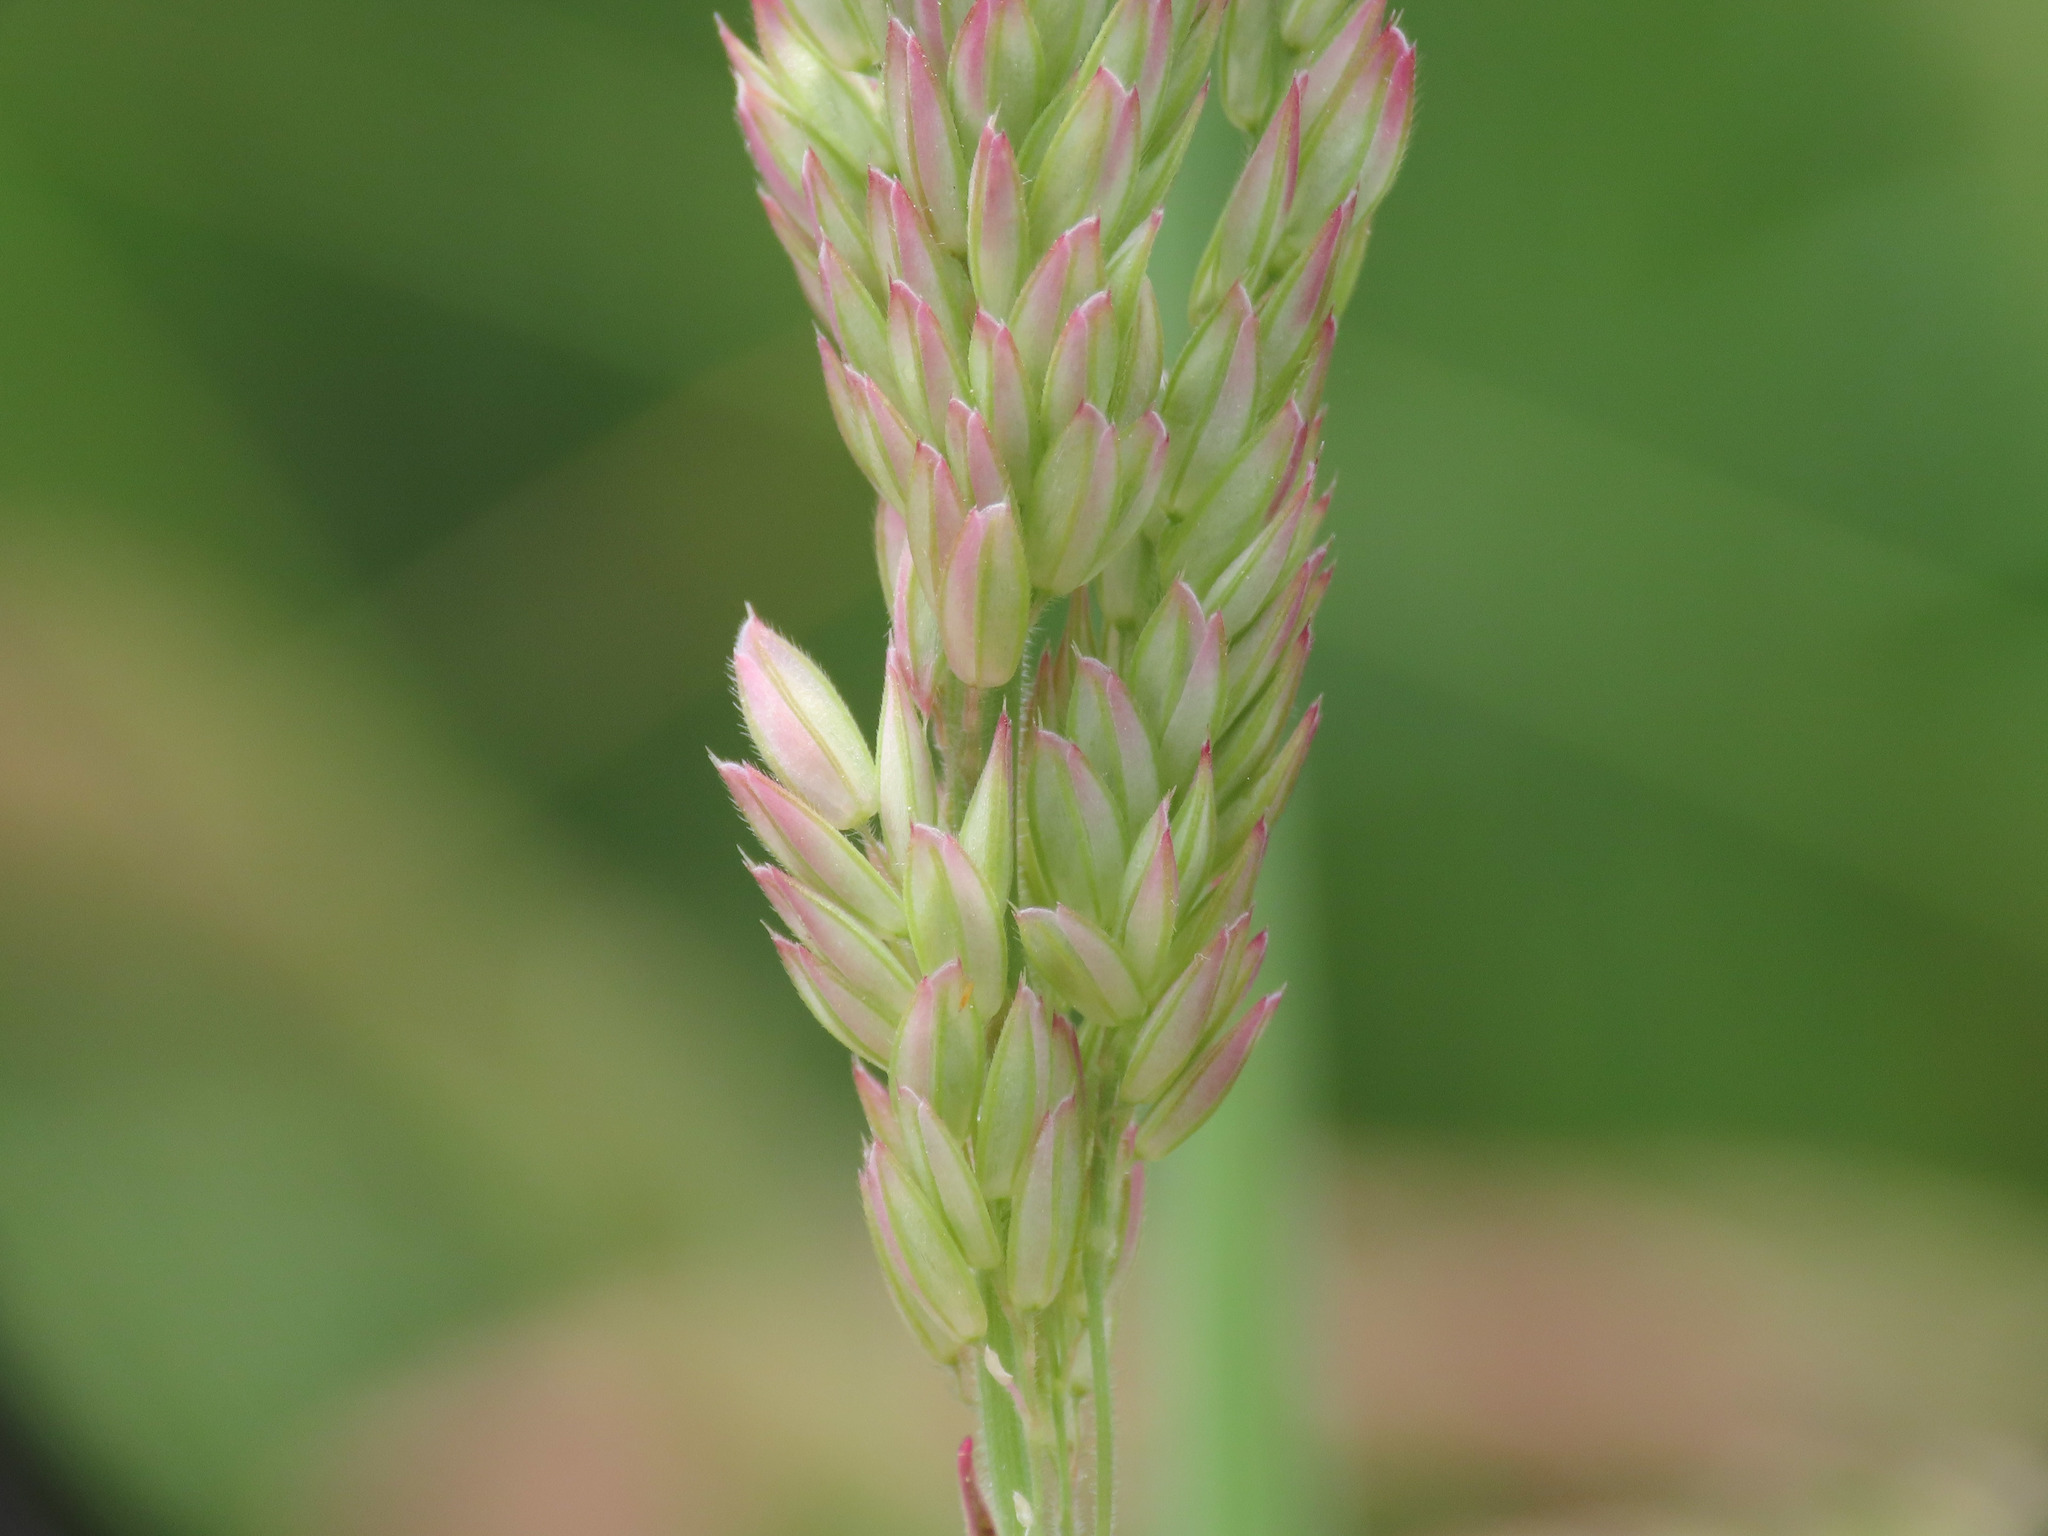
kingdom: Plantae
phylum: Tracheophyta
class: Liliopsida
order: Poales
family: Poaceae
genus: Holcus
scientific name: Holcus lanatus
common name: Yorkshire-fog
